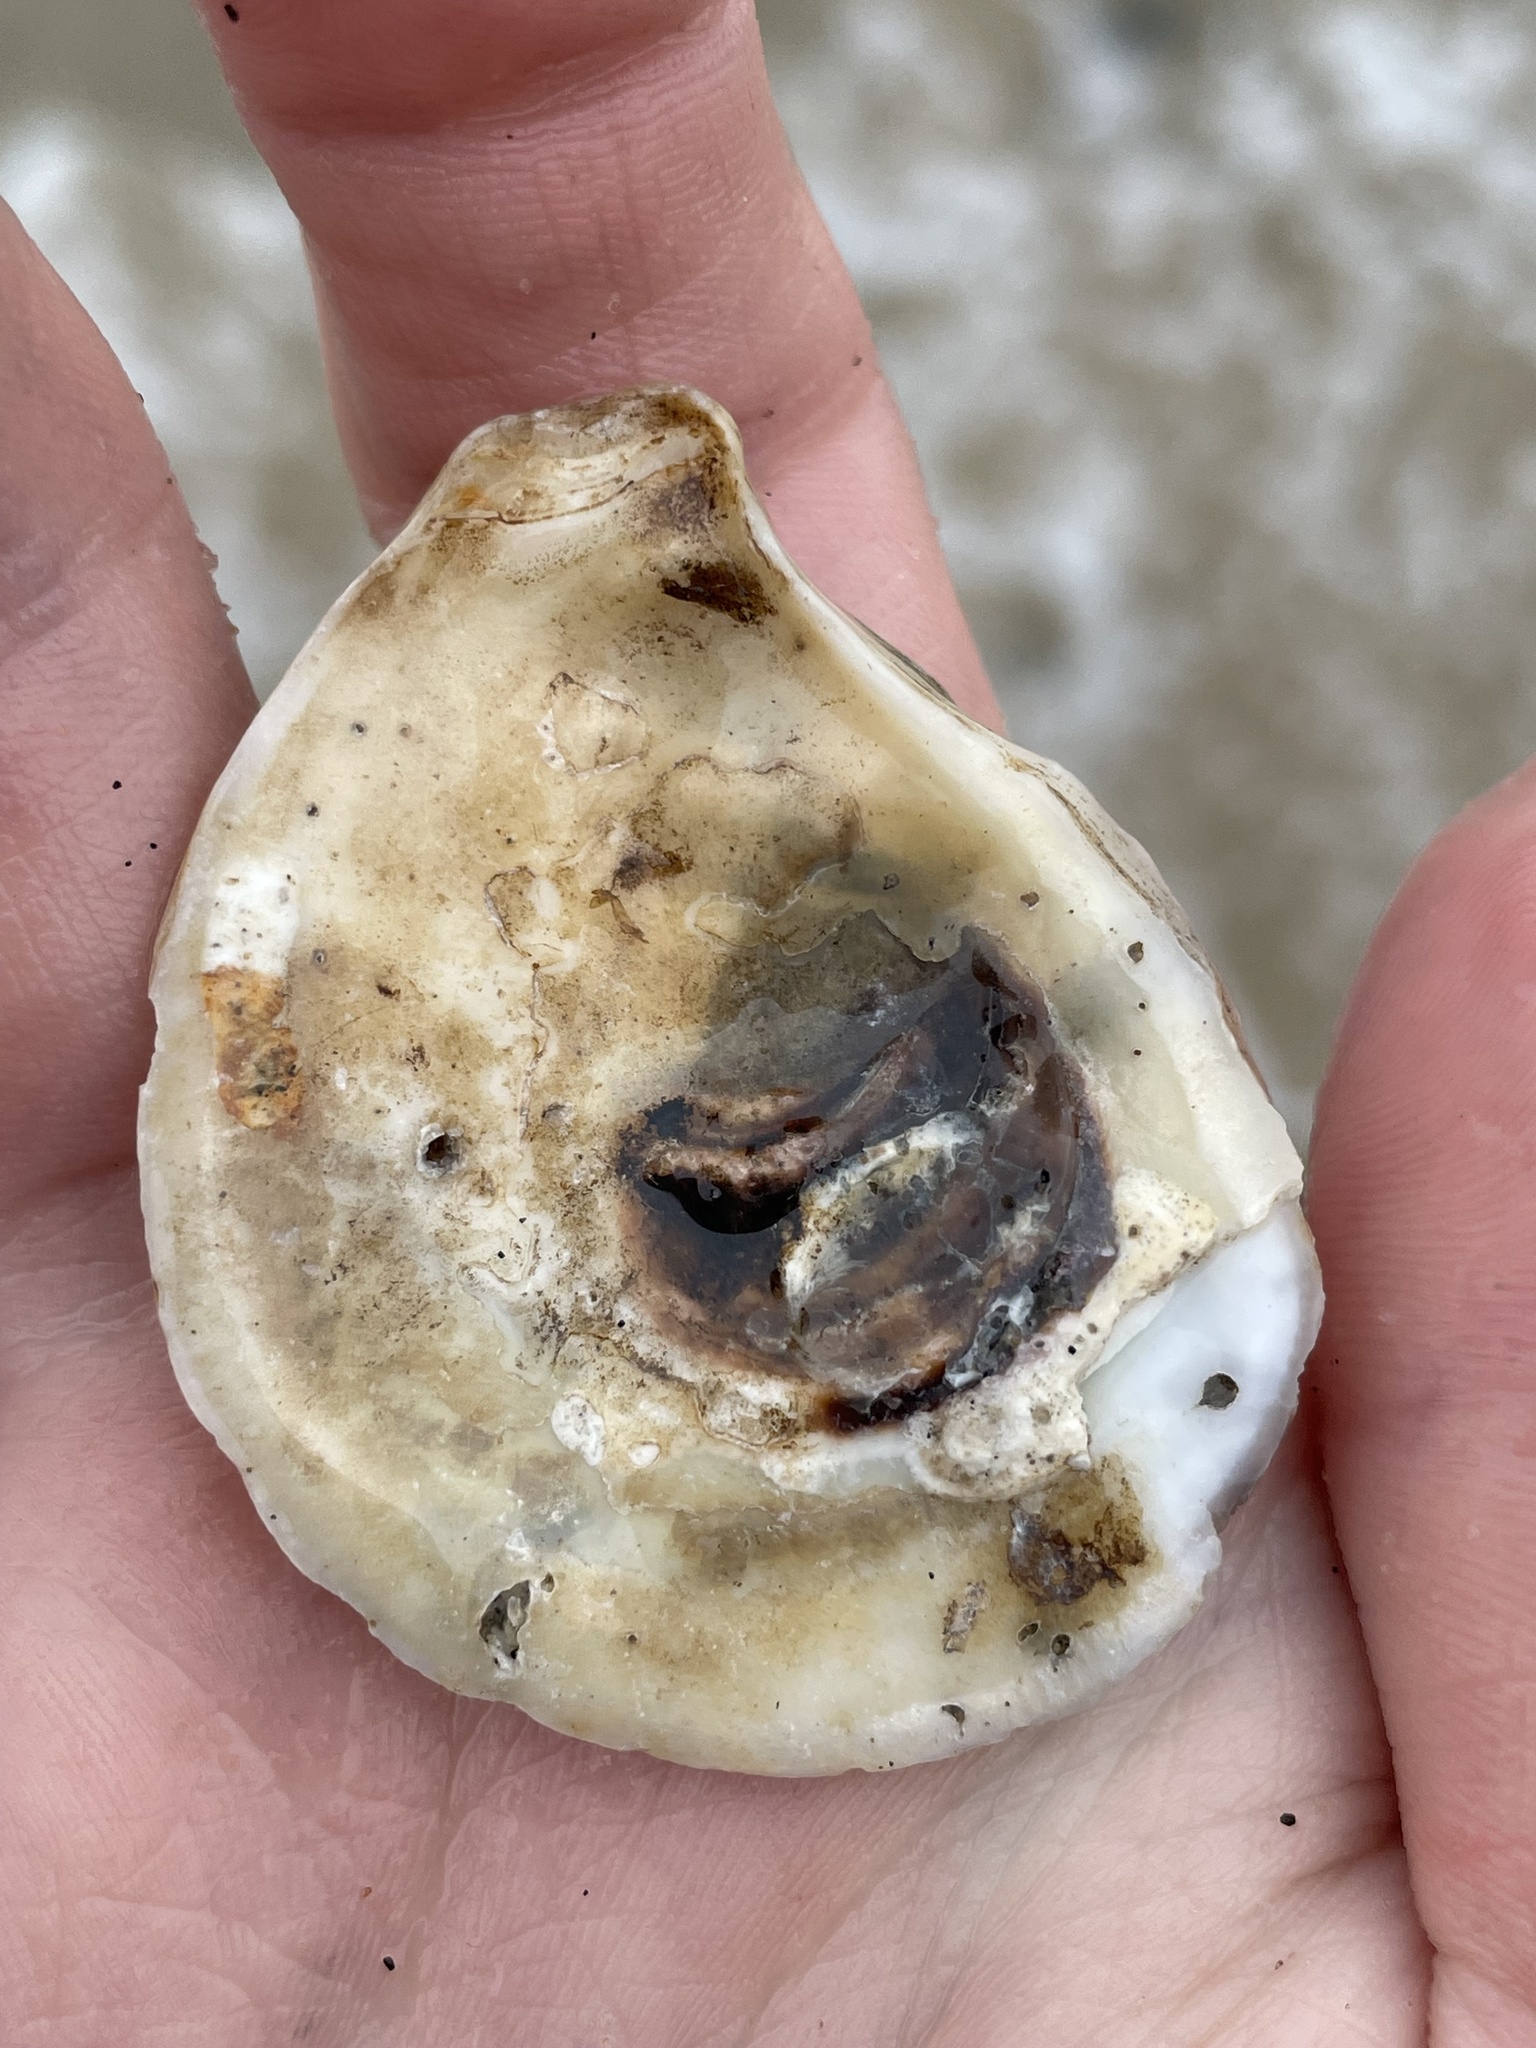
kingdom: Animalia
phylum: Mollusca
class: Bivalvia
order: Ostreida
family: Ostreidae
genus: Crassostrea
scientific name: Crassostrea virginica
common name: American oyster
